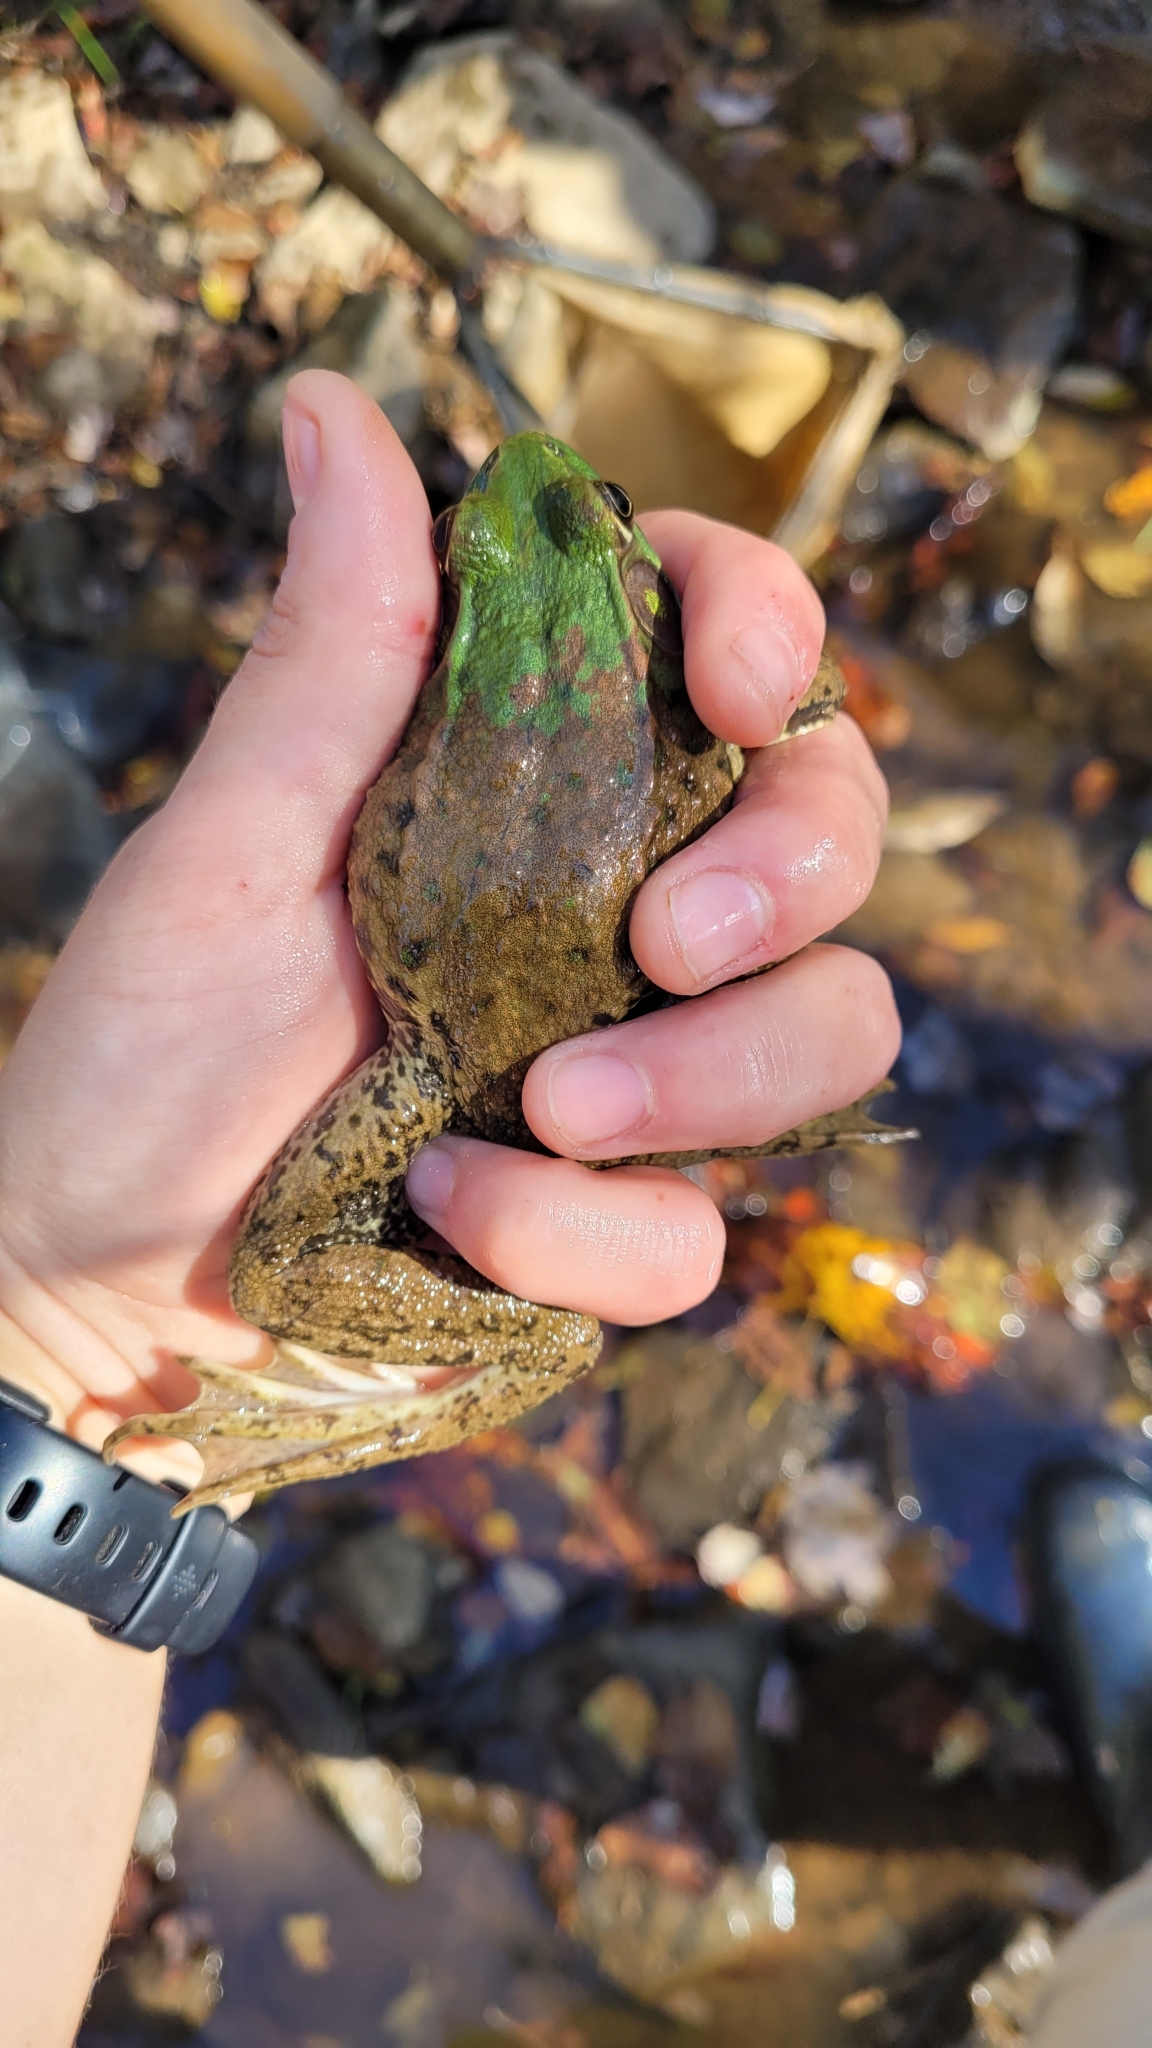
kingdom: Animalia
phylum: Chordata
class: Amphibia
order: Anura
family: Ranidae
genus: Lithobates
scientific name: Lithobates clamitans
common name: Green frog
